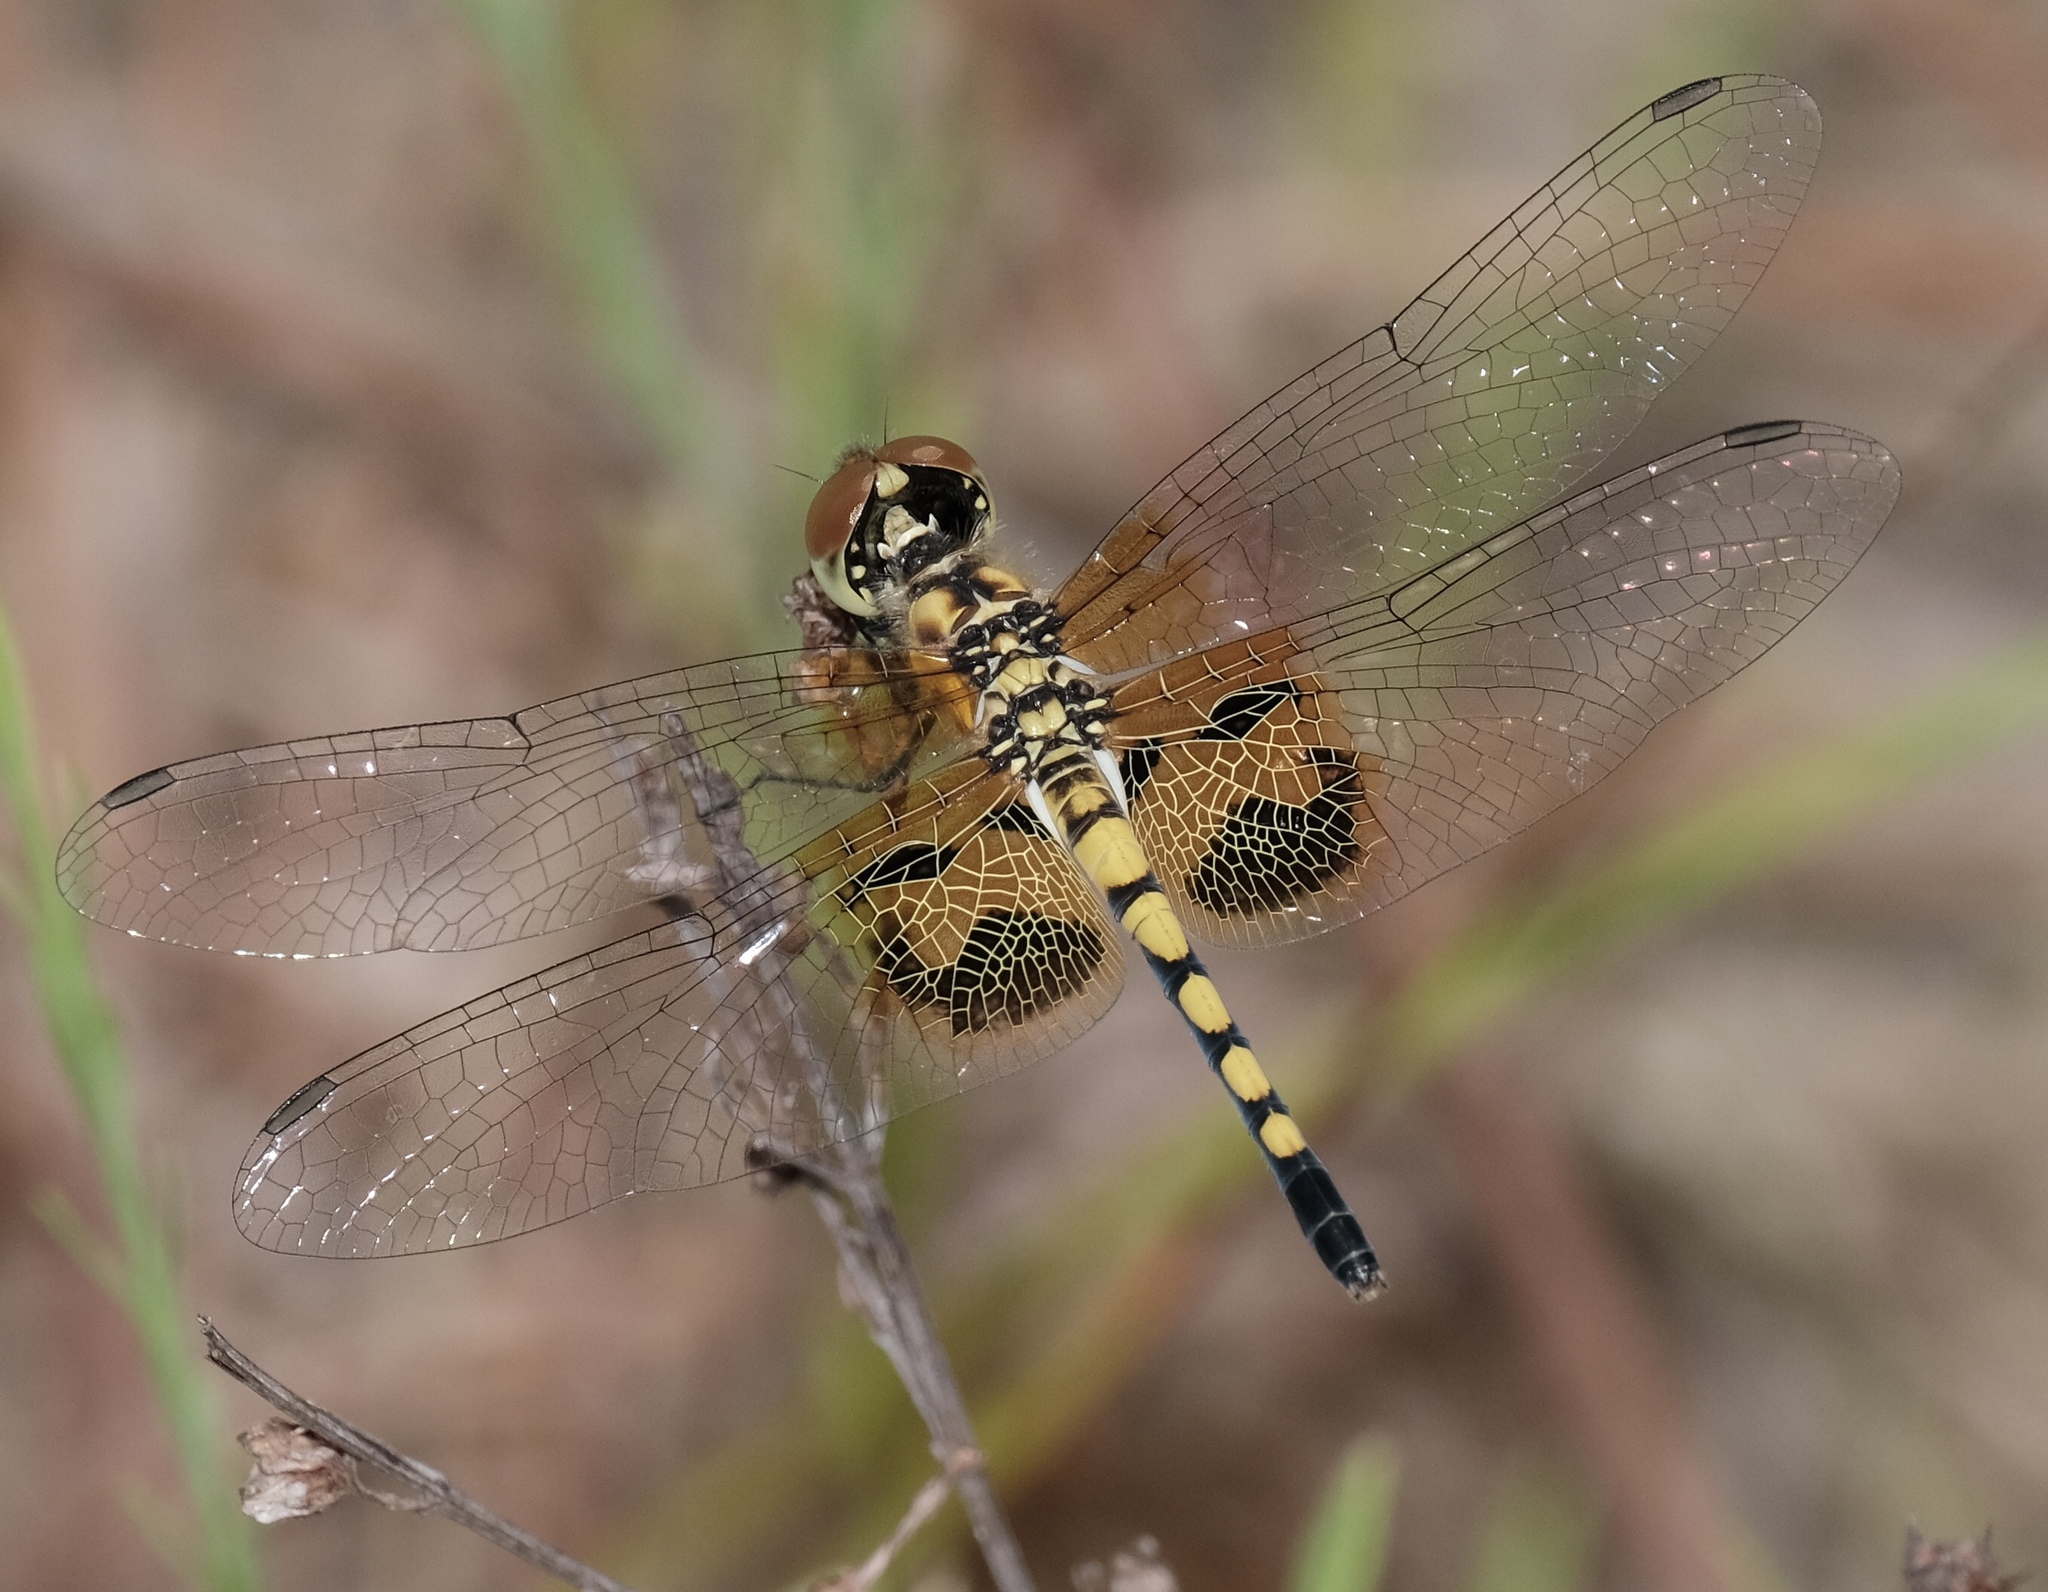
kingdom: Animalia
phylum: Arthropoda
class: Insecta
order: Odonata
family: Libellulidae
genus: Celithemis
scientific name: Celithemis amanda
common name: Amanda's pennant
